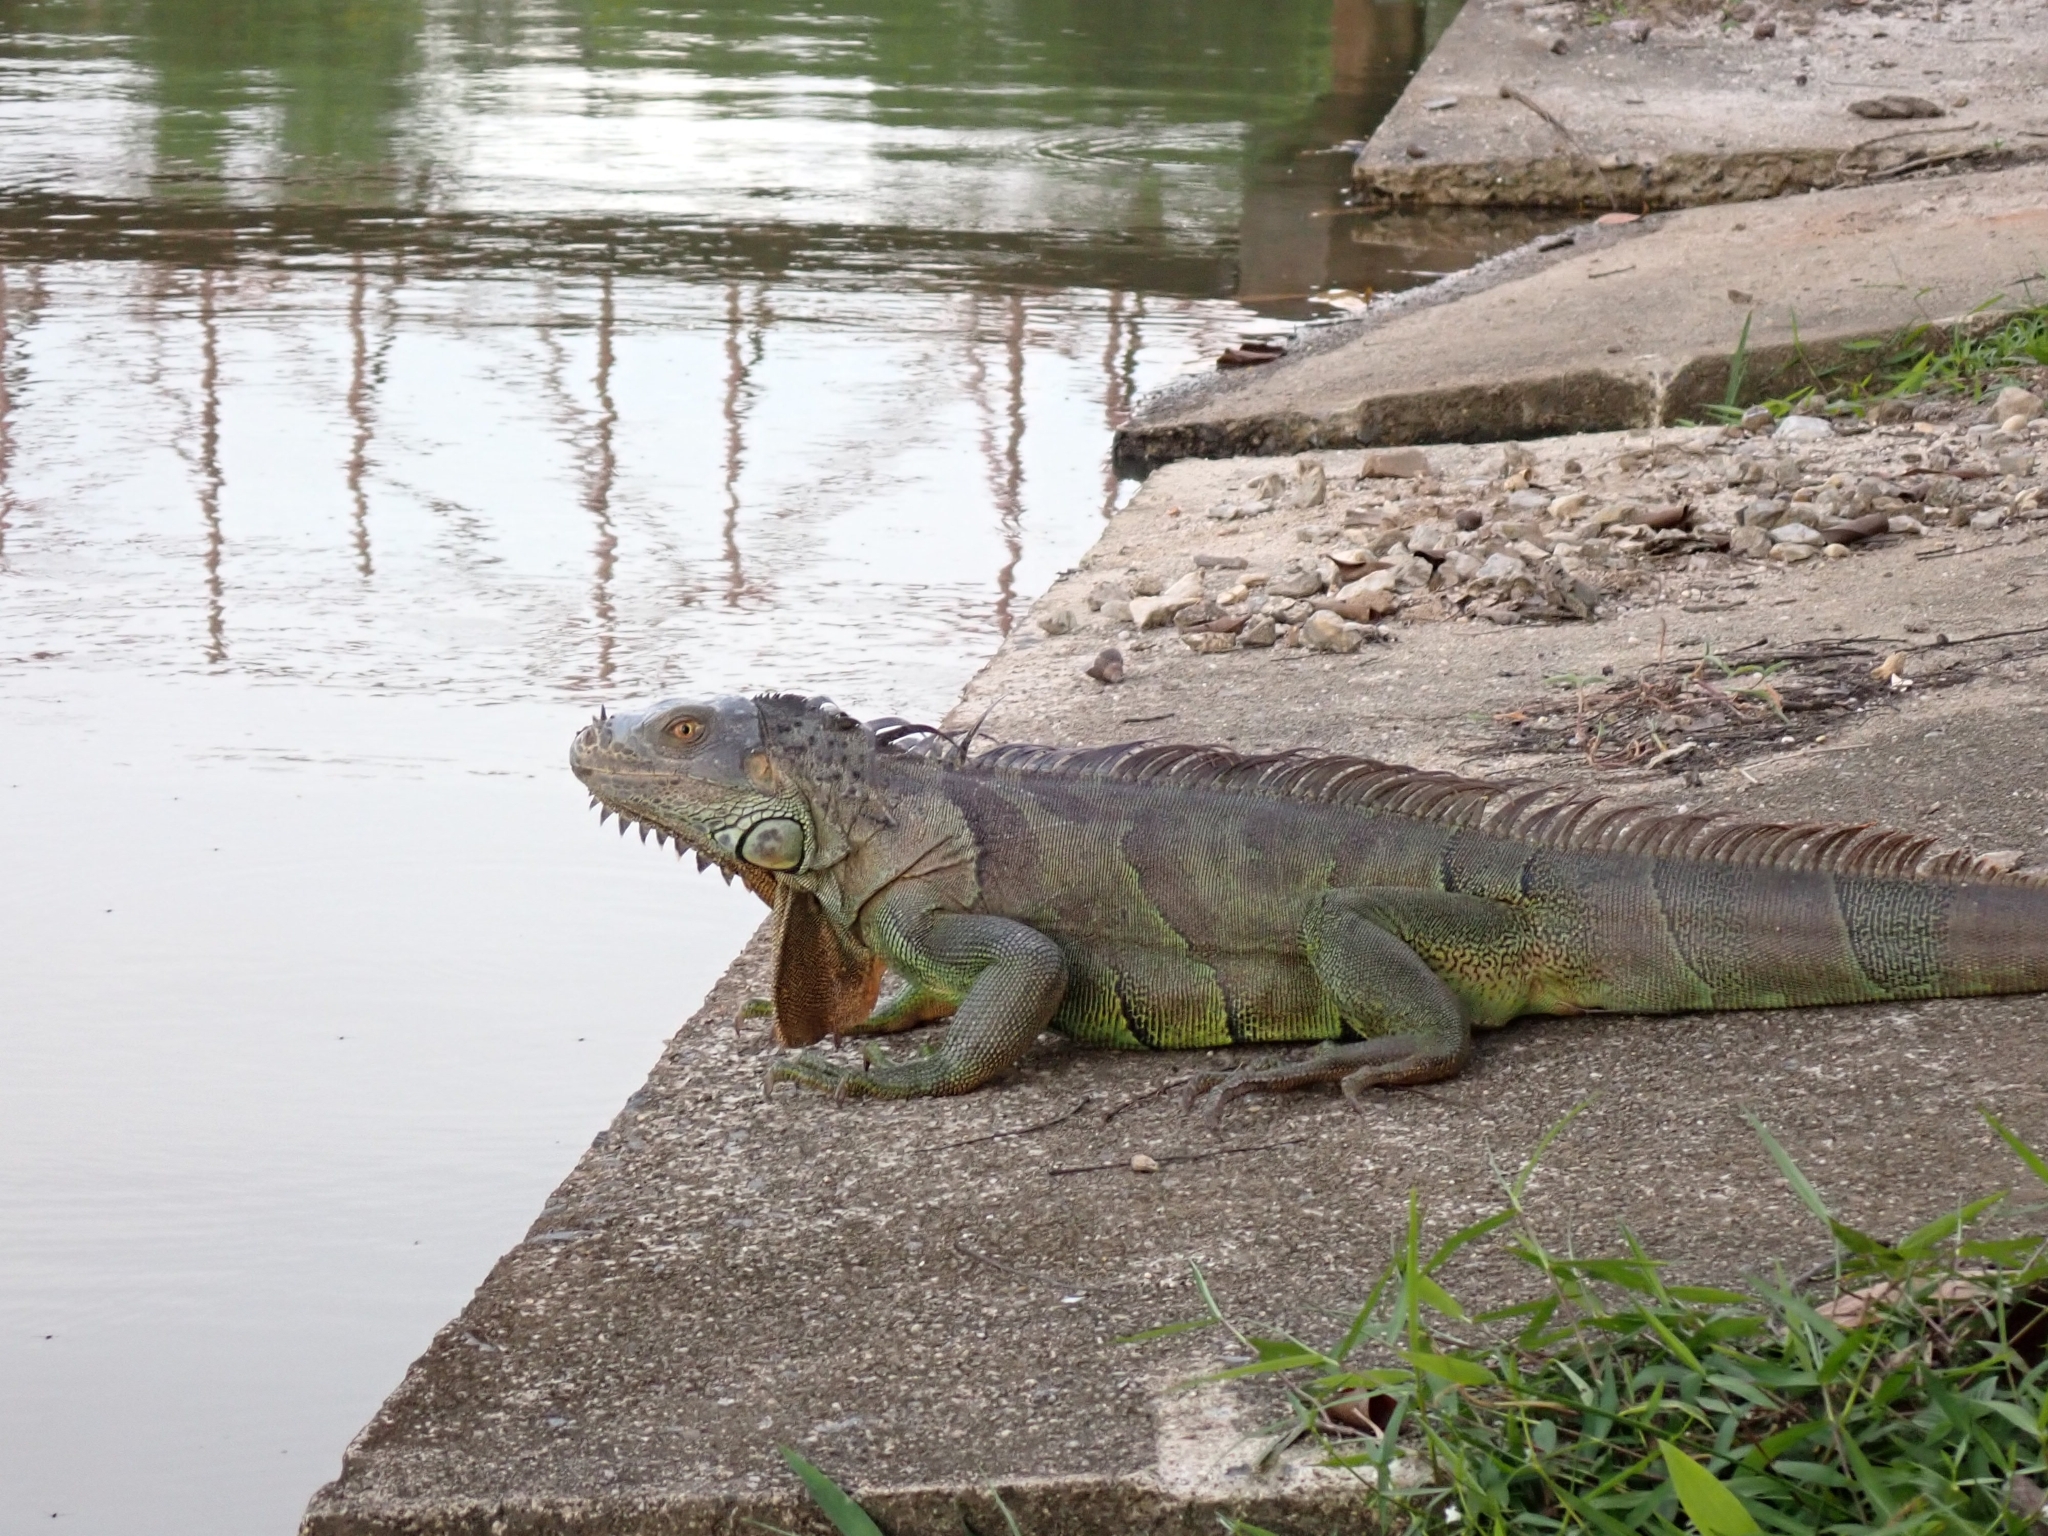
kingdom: Animalia
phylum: Chordata
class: Squamata
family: Iguanidae
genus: Iguana
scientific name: Iguana iguana
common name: Green iguana
